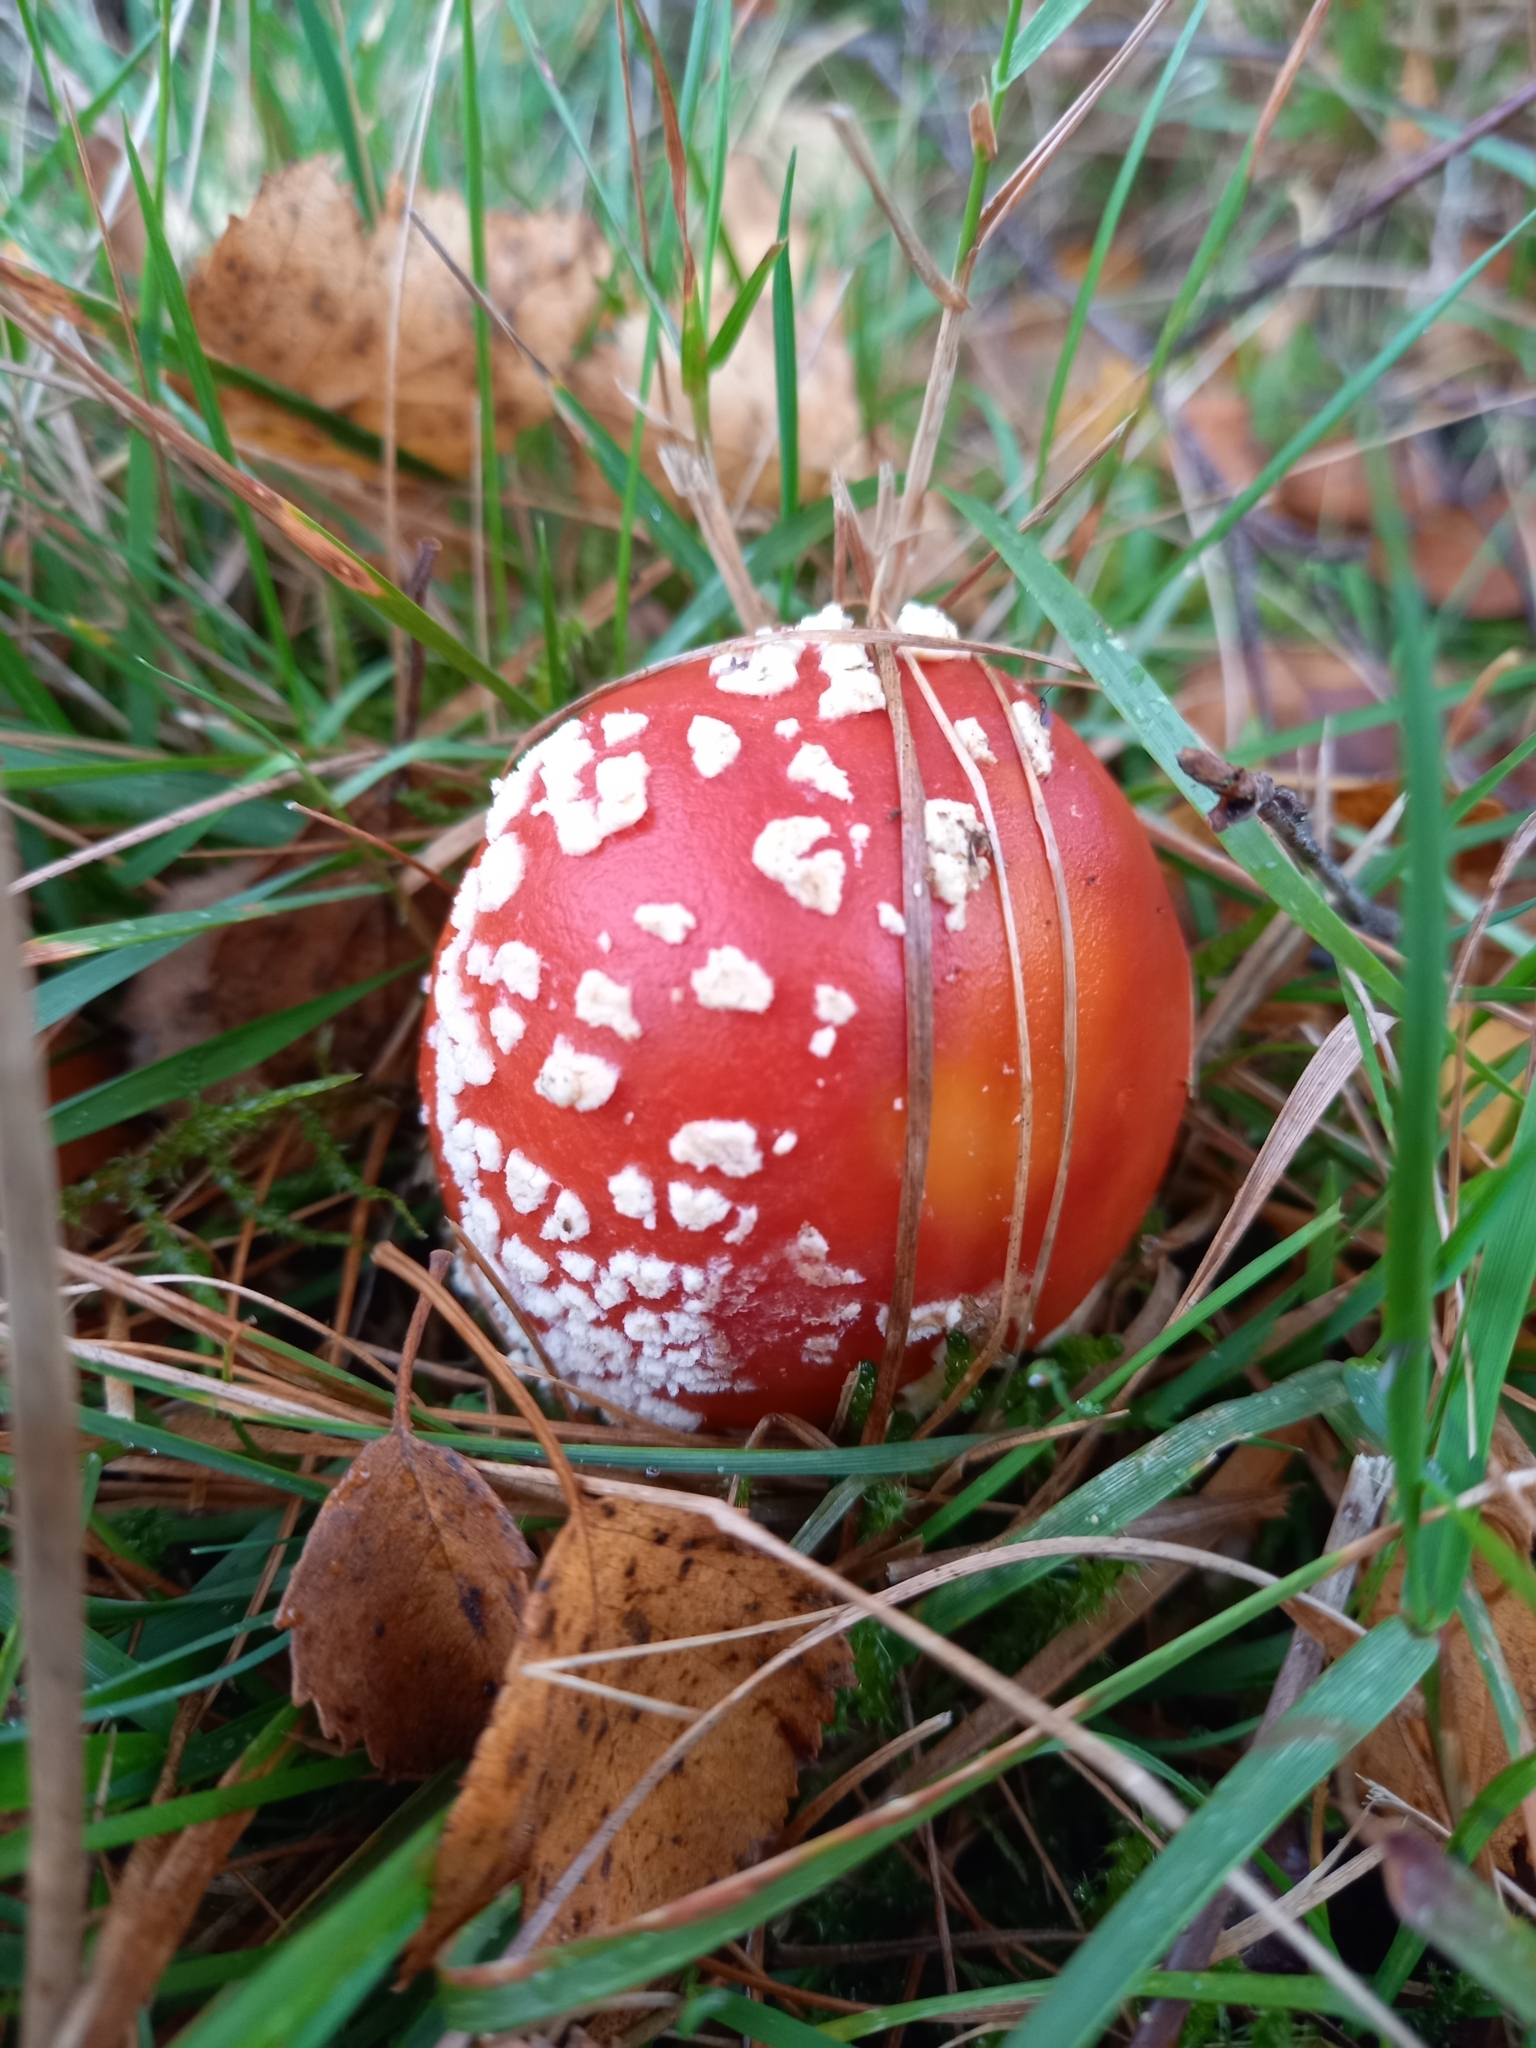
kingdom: Fungi
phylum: Basidiomycota
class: Agaricomycetes
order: Agaricales
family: Amanitaceae
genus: Amanita
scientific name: Amanita muscaria
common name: Fly agaric
